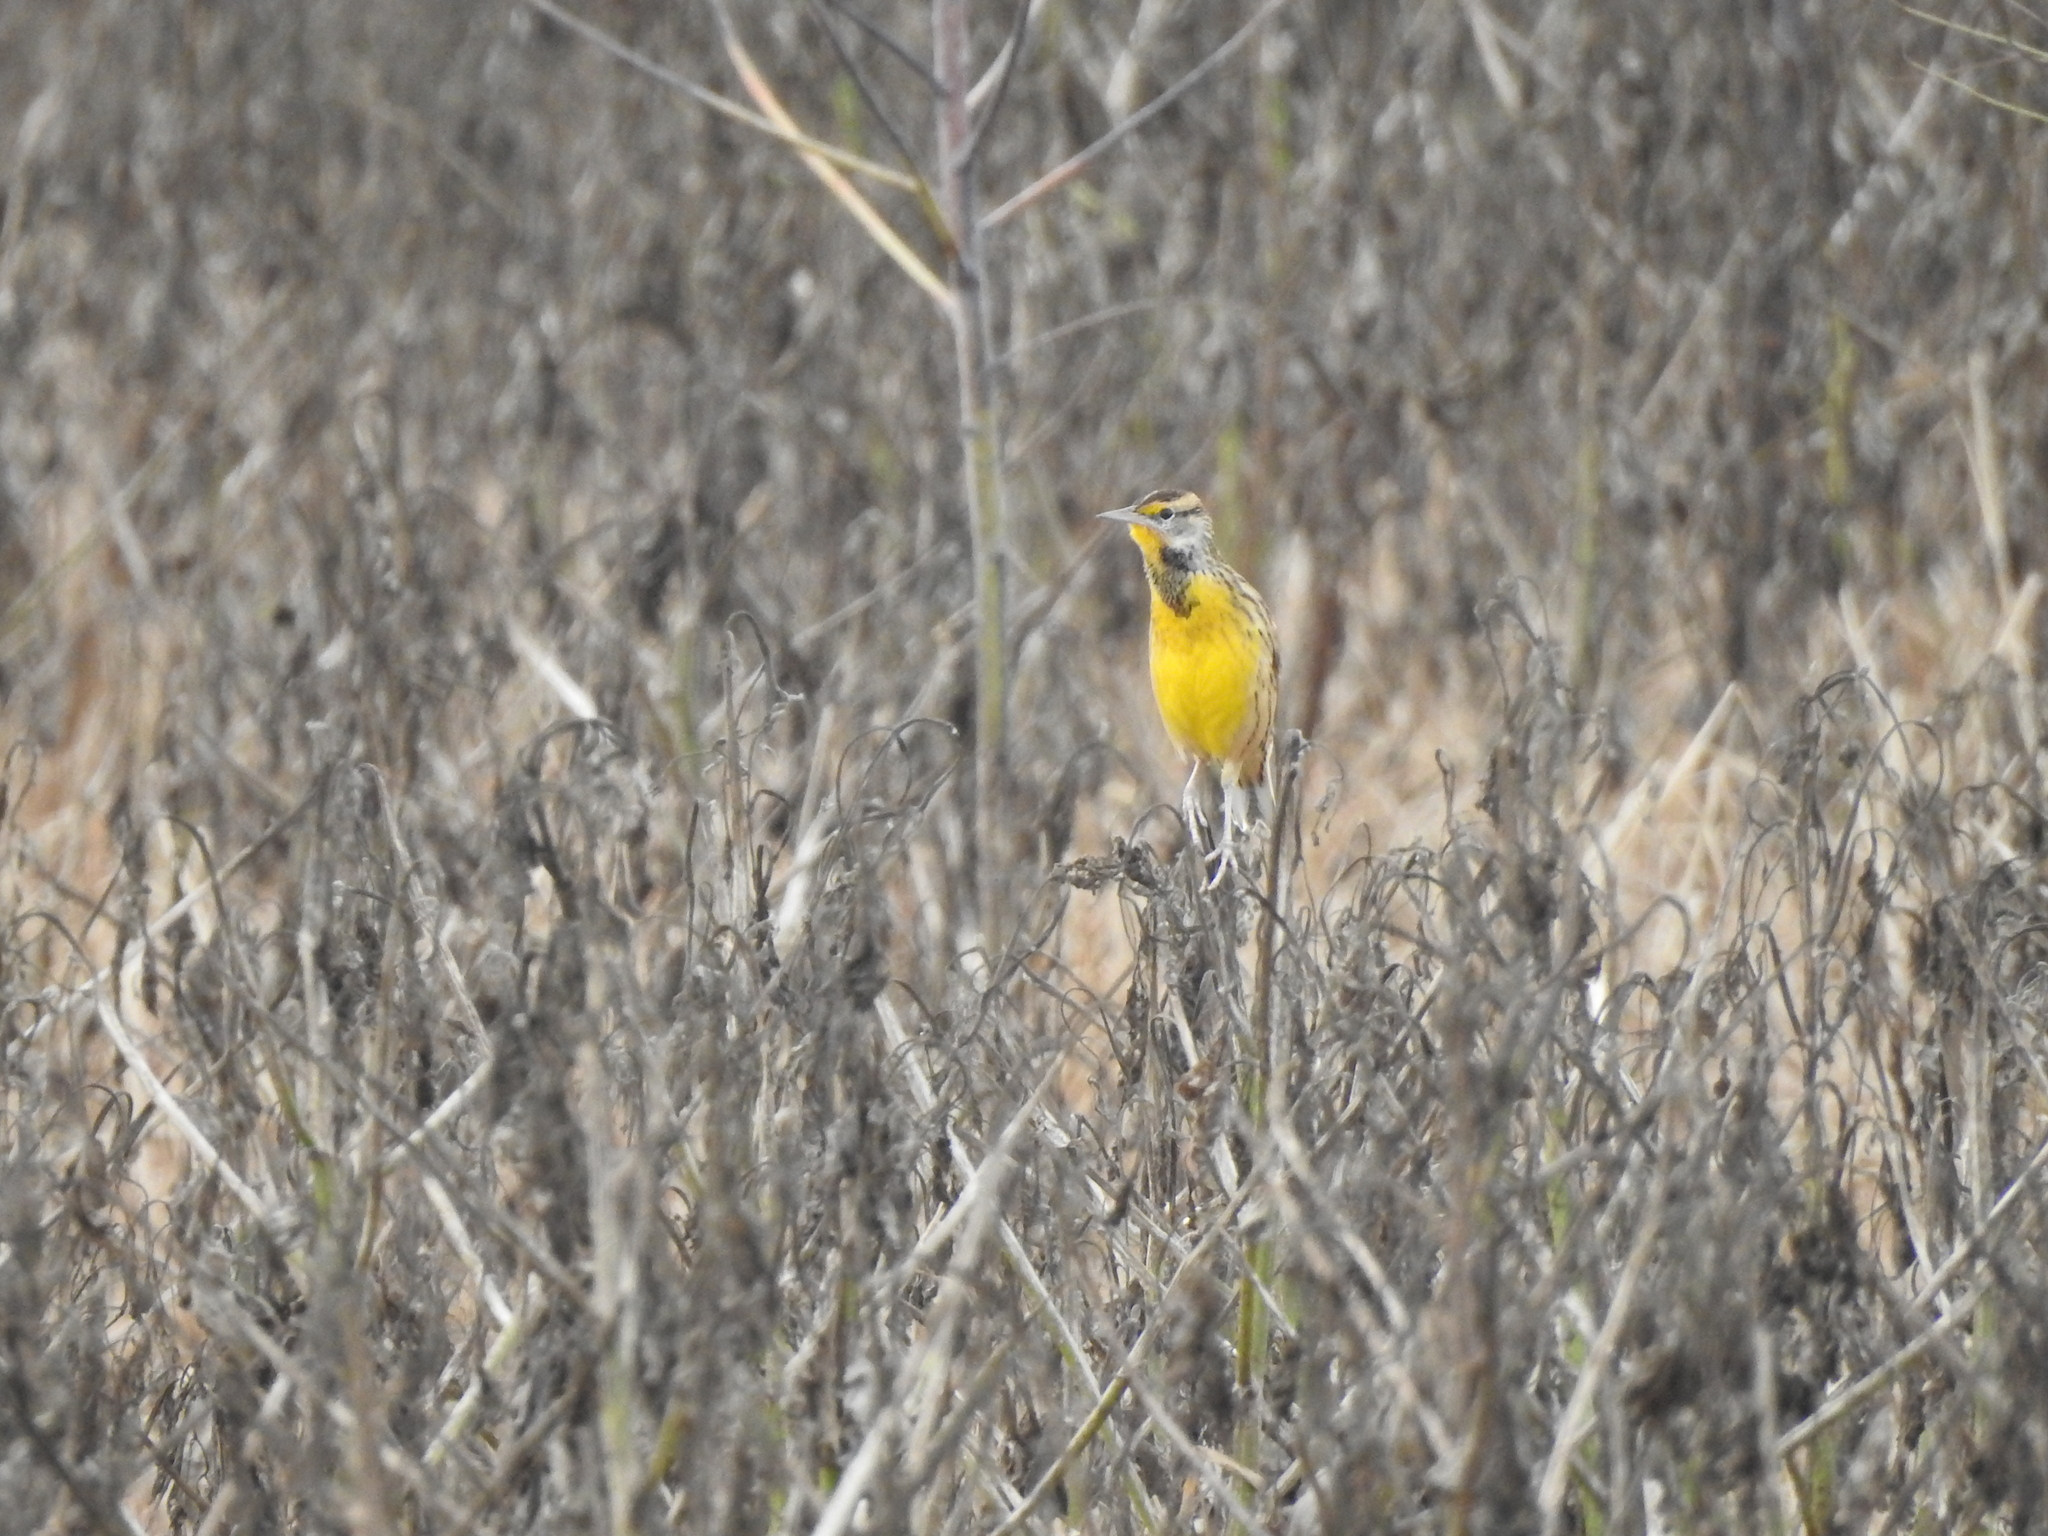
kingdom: Animalia
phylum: Chordata
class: Aves
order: Passeriformes
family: Icteridae
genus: Sturnella
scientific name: Sturnella magna
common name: Eastern meadowlark
